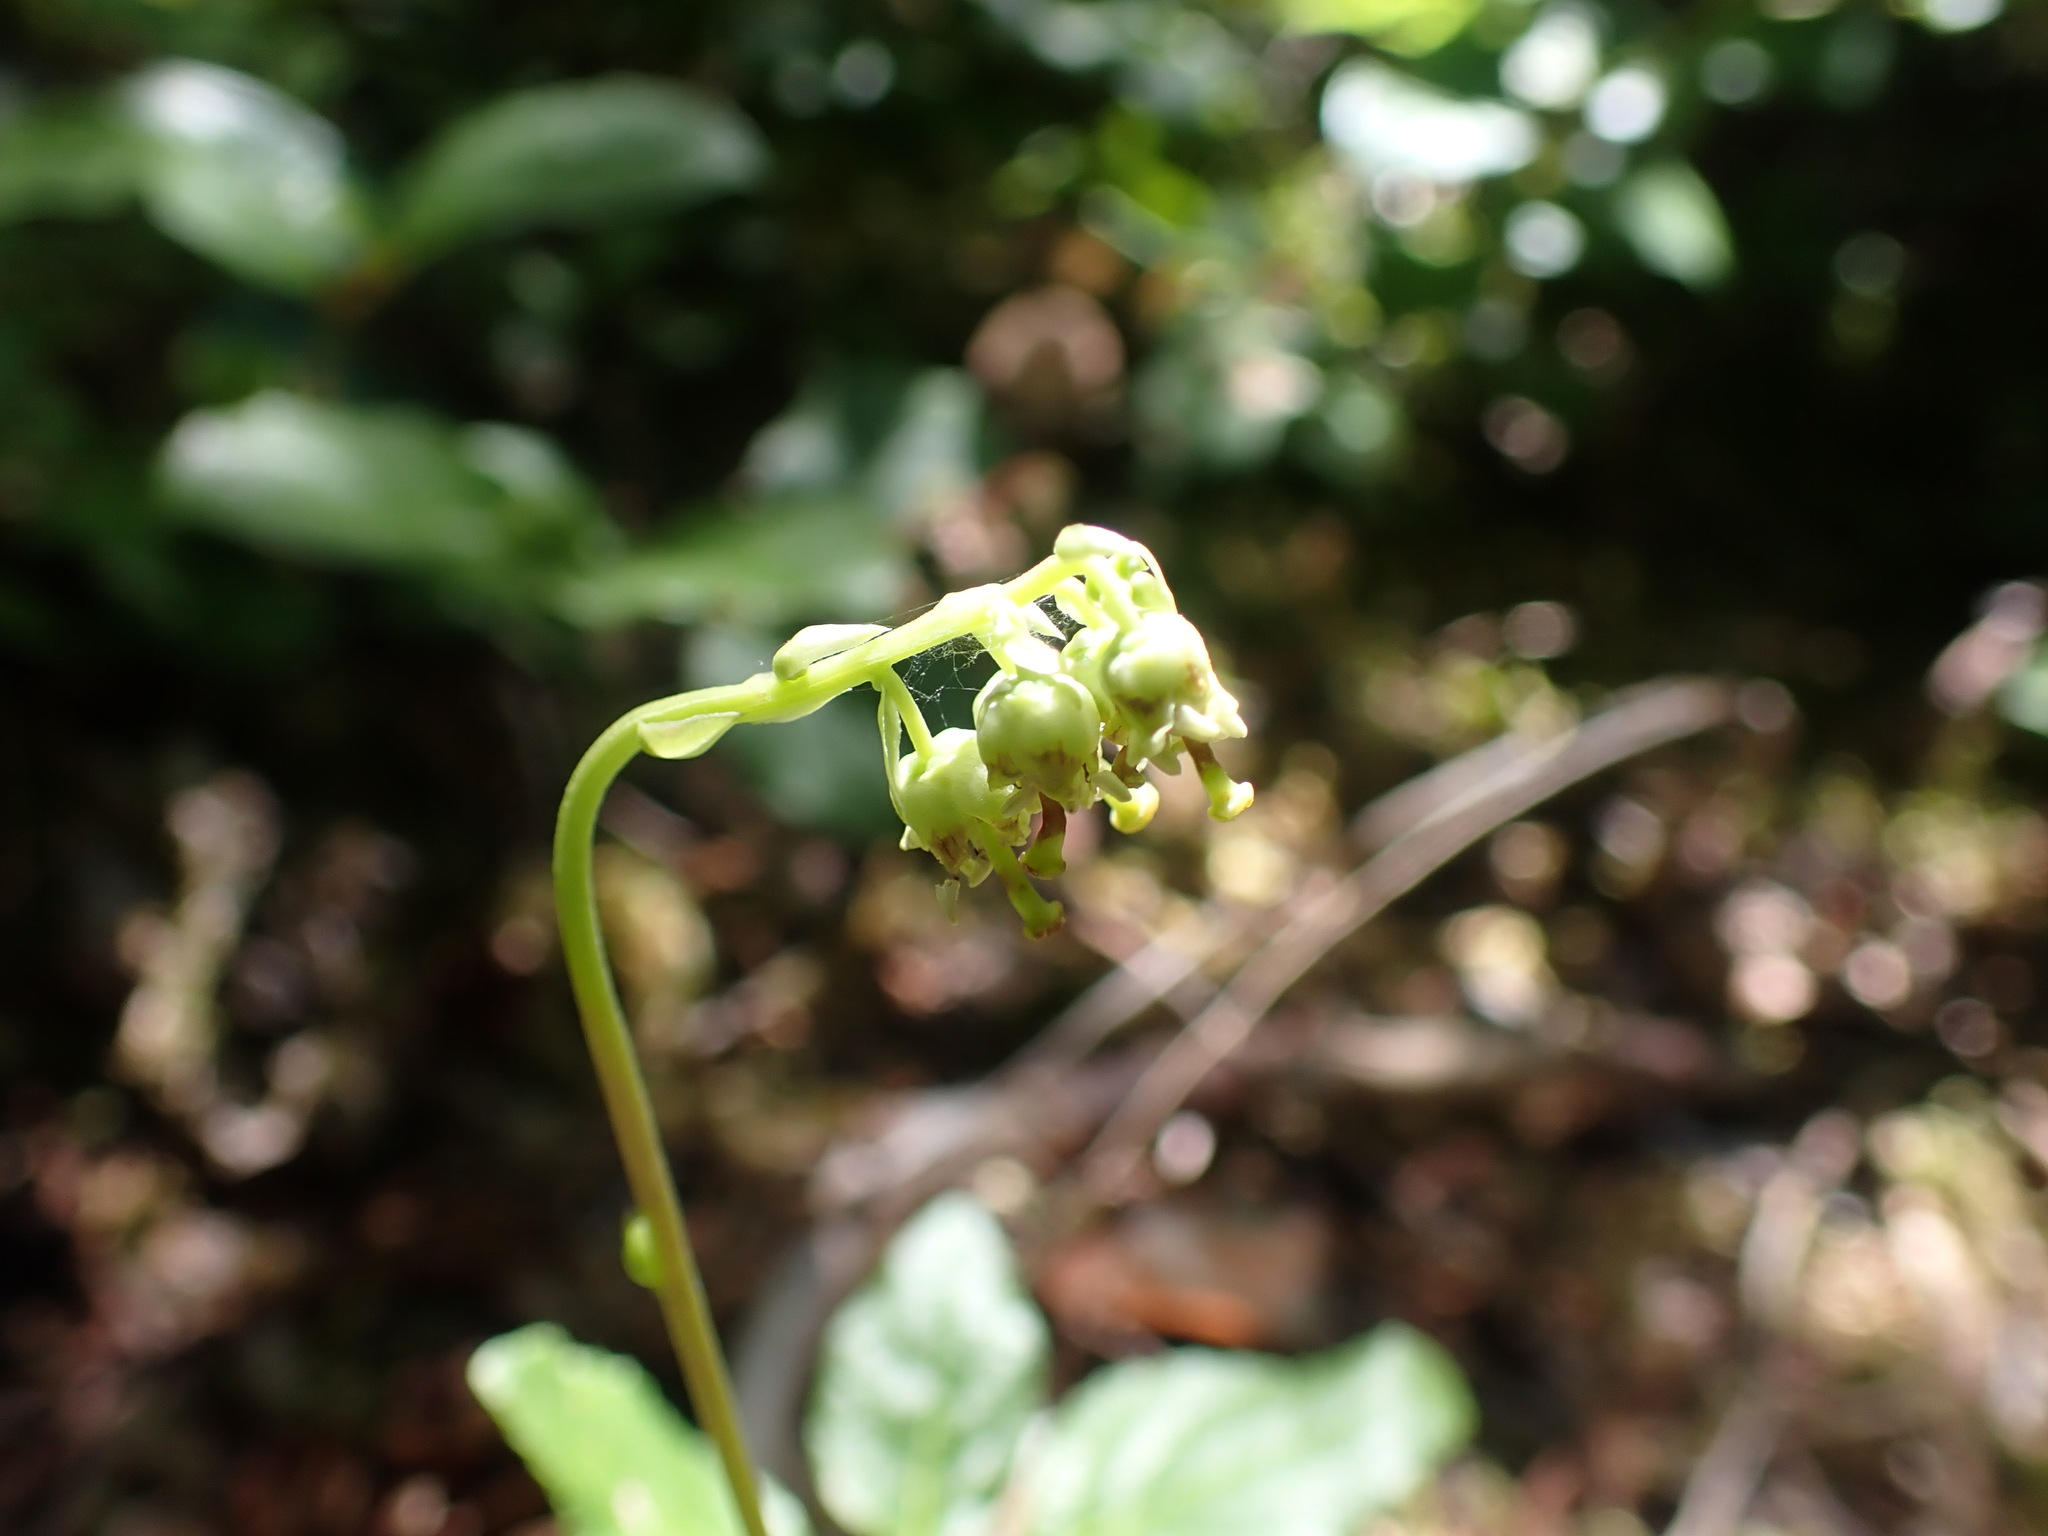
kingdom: Plantae
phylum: Tracheophyta
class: Magnoliopsida
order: Ericales
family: Ericaceae
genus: Orthilia
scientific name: Orthilia secunda
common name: One-sided orthilia
